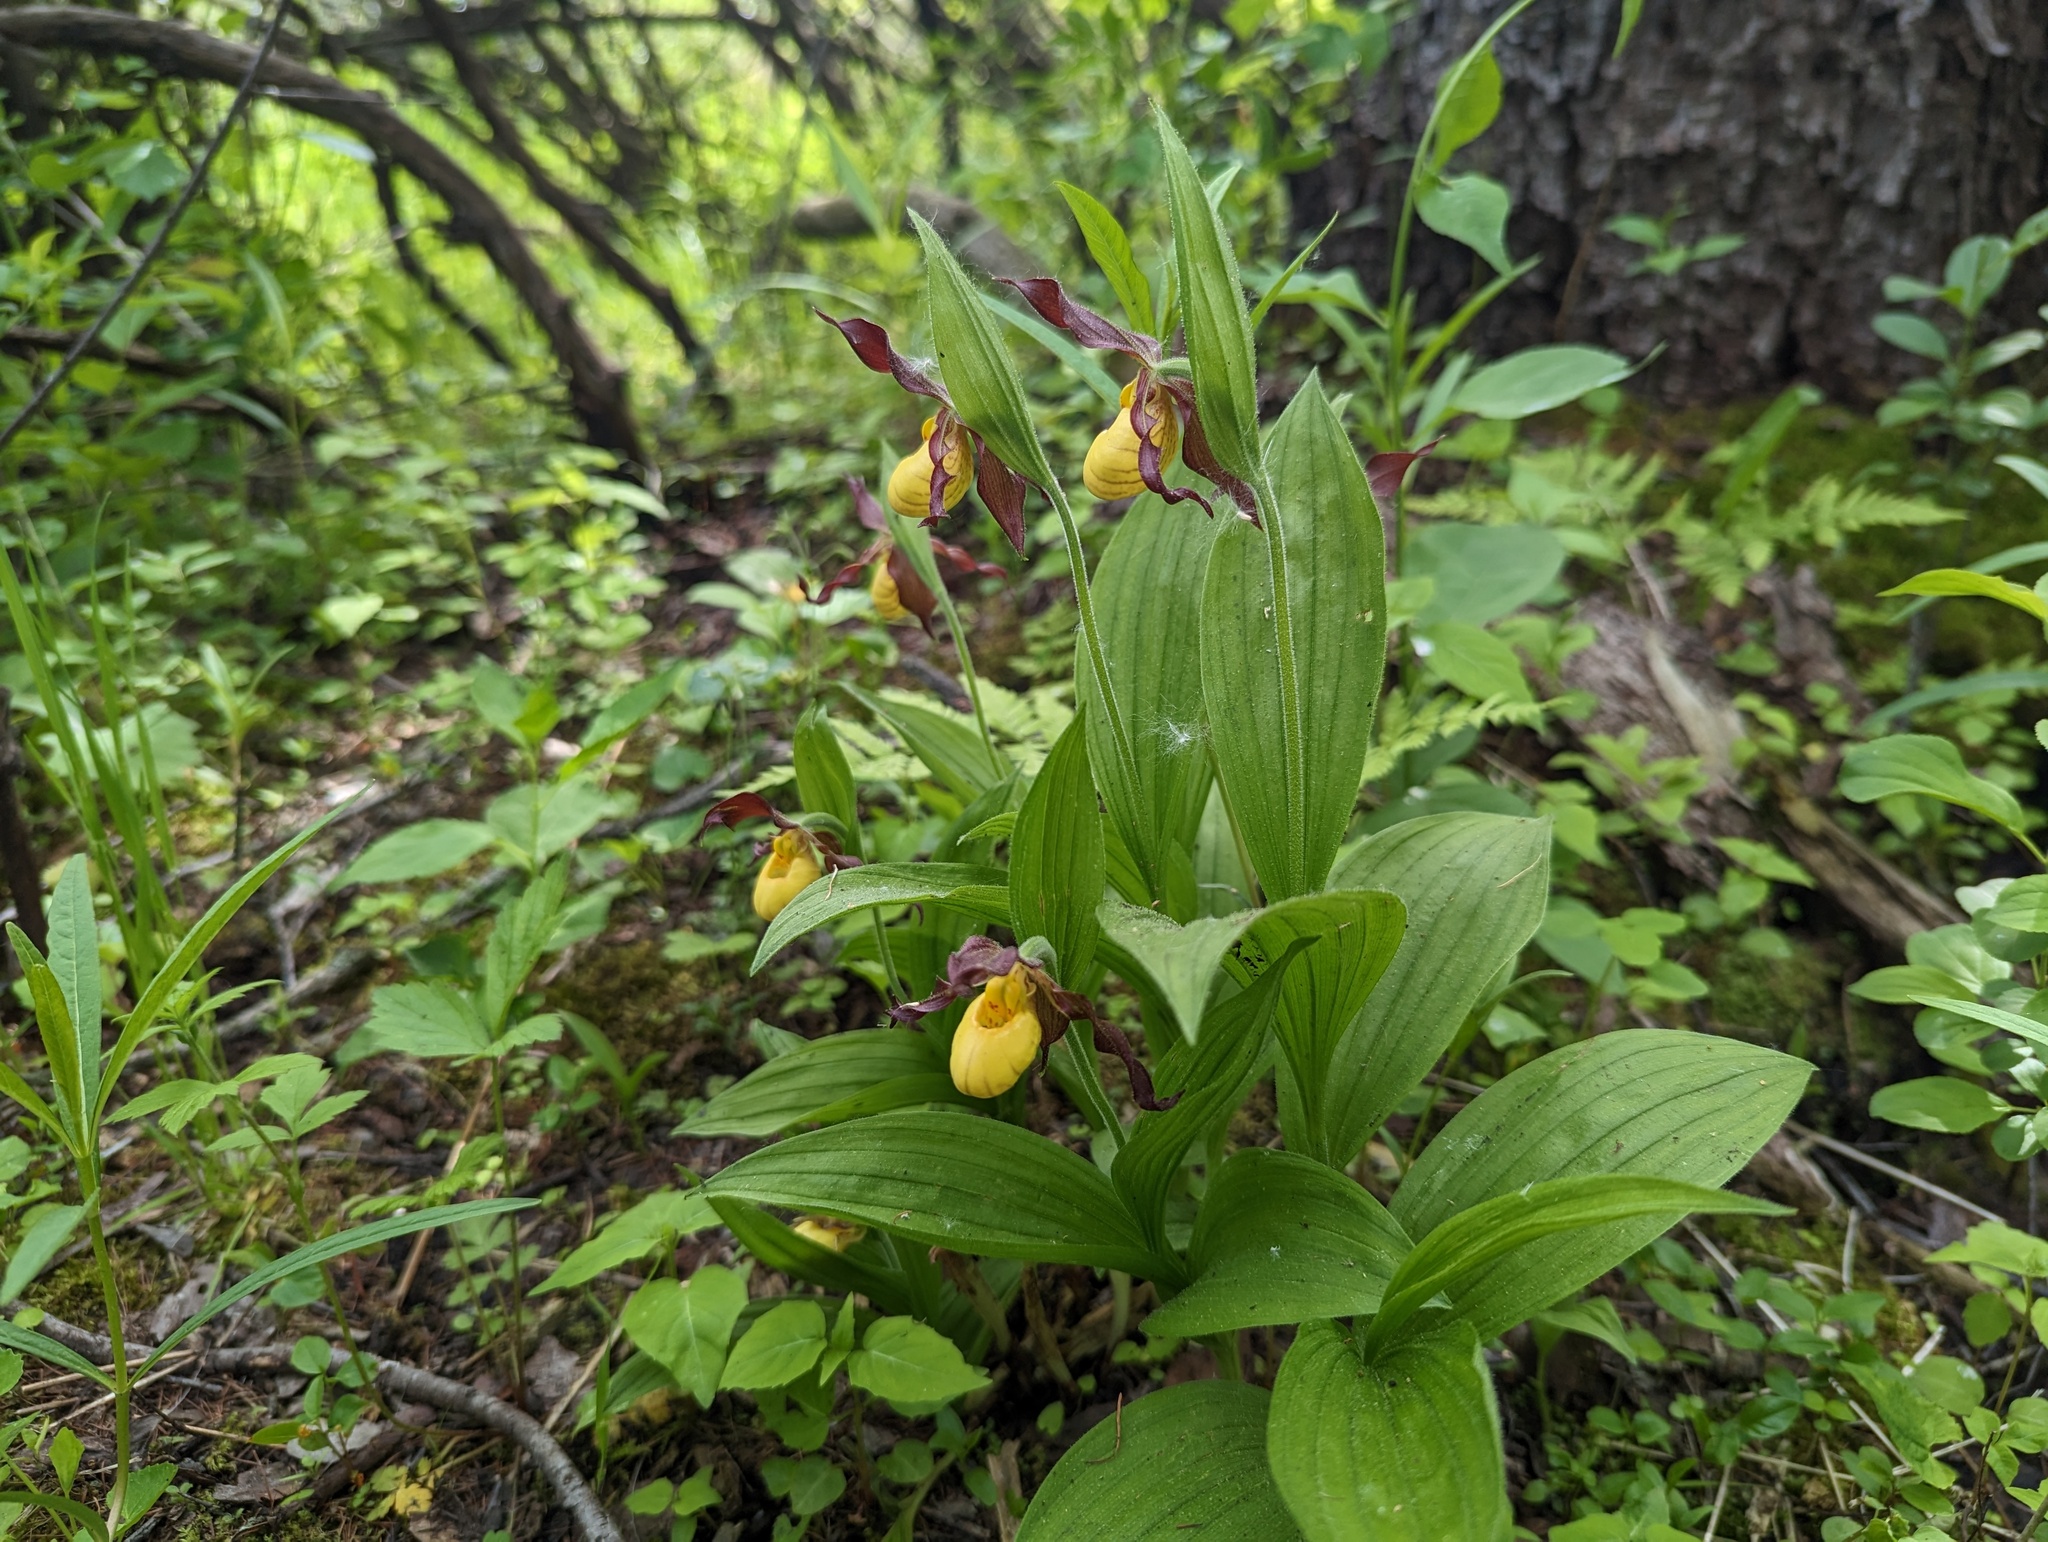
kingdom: Plantae
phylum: Tracheophyta
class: Liliopsida
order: Asparagales
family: Orchidaceae
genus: Cypripedium
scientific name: Cypripedium parviflorum
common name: American yellow lady's-slipper
